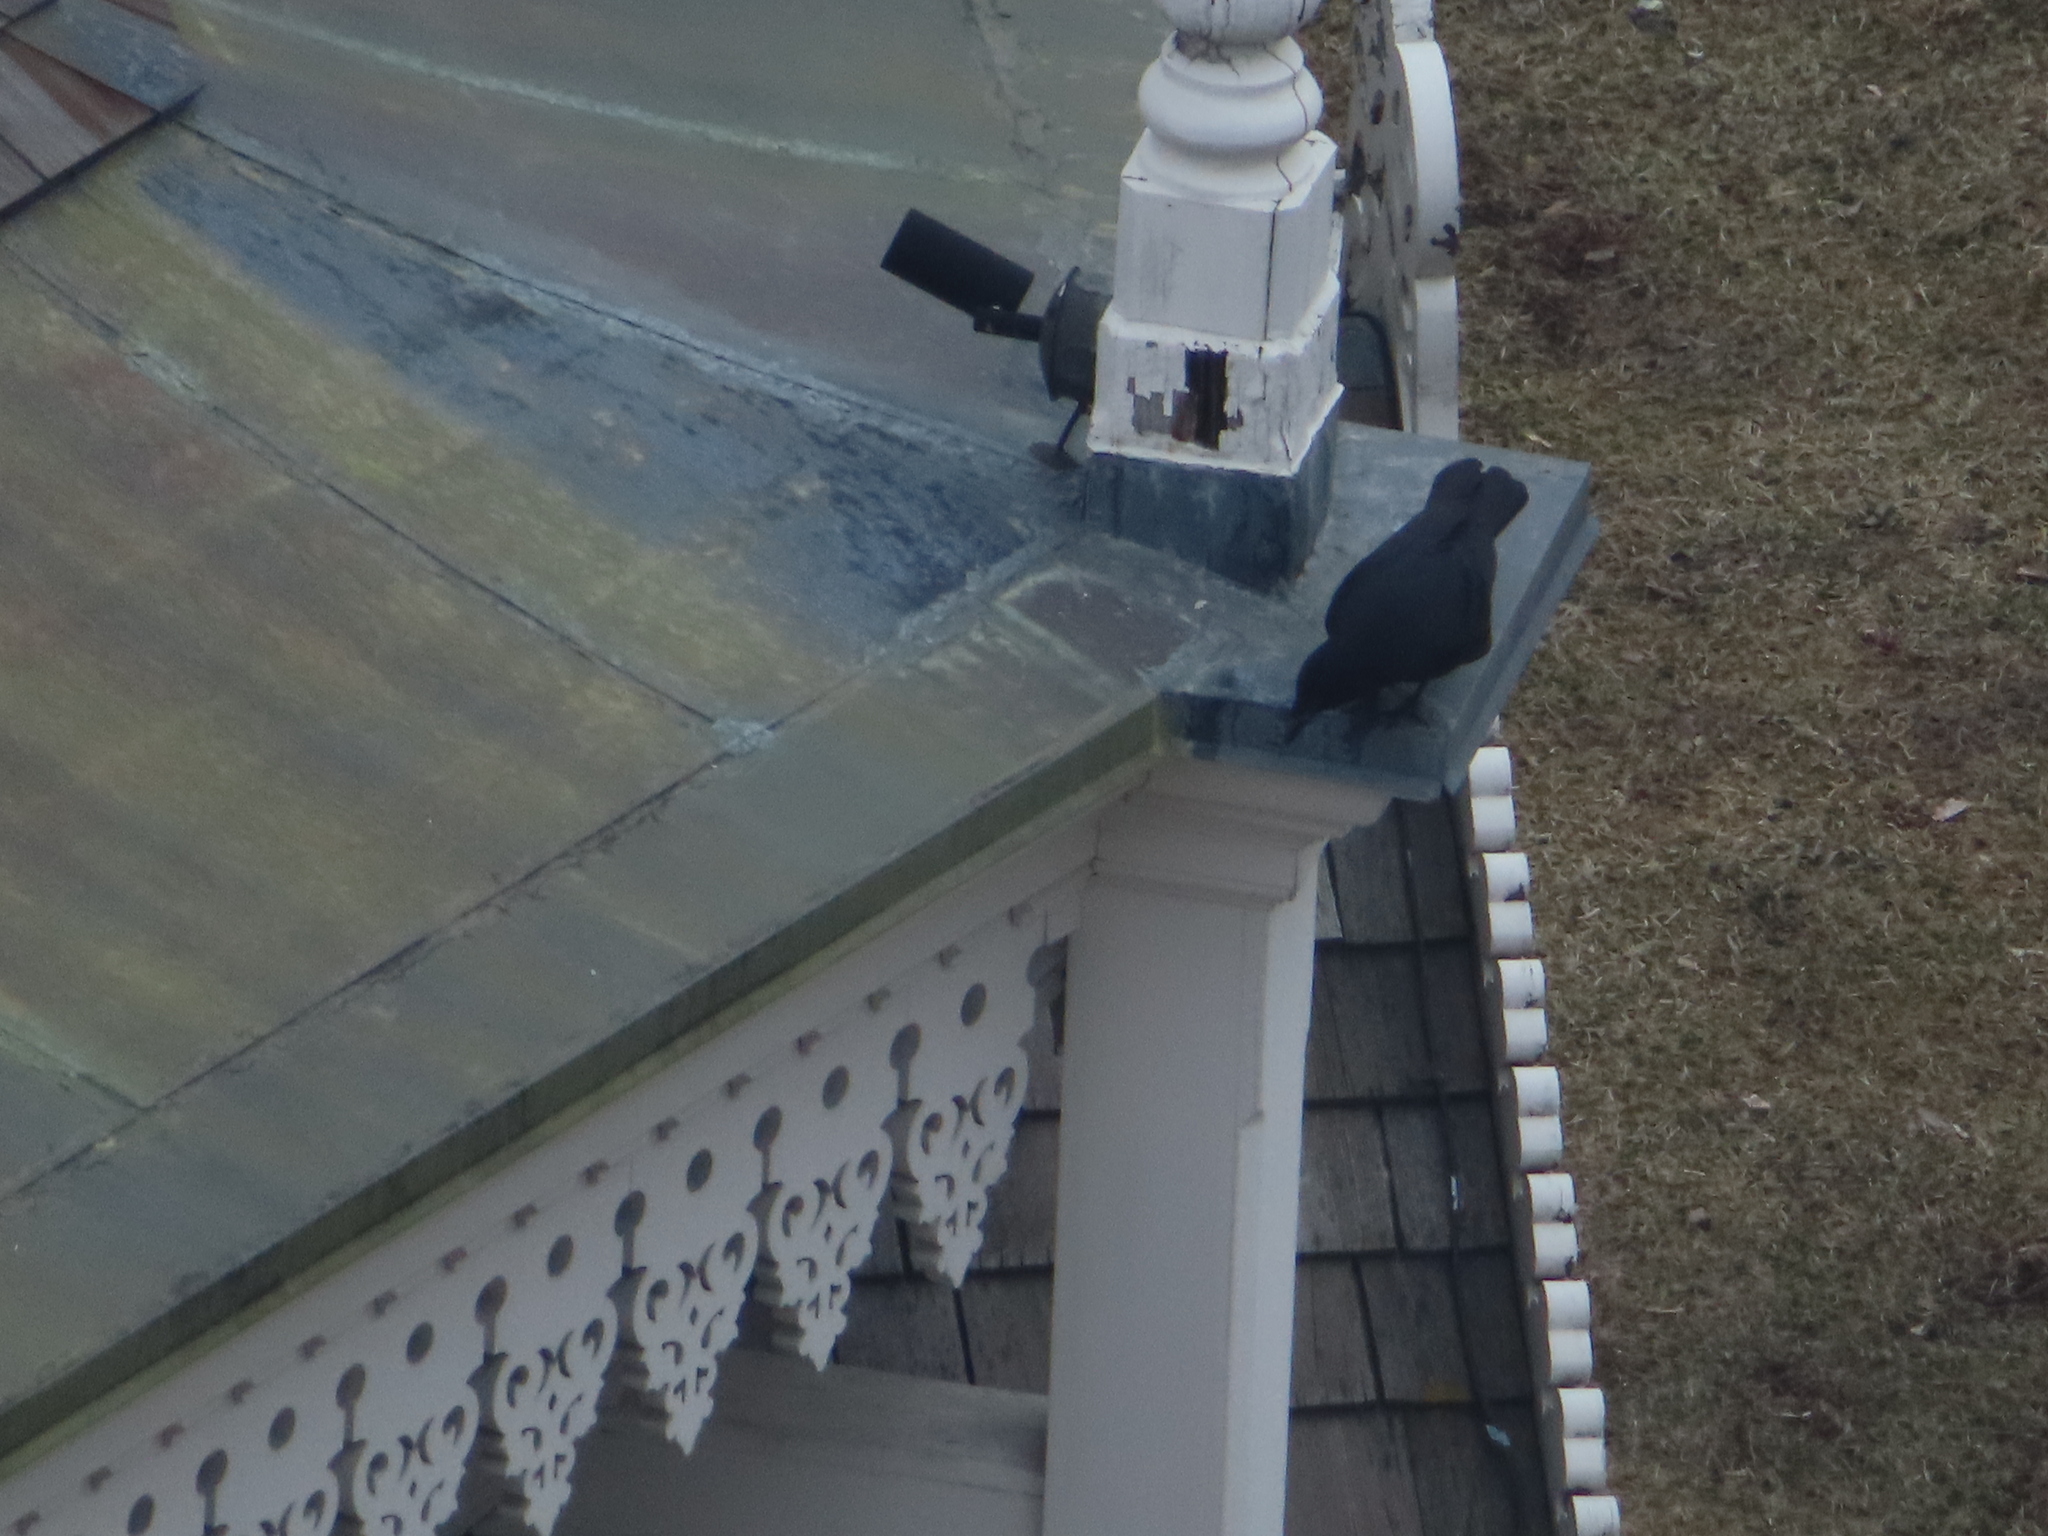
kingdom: Animalia
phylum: Chordata
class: Aves
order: Passeriformes
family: Corvidae
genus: Corvus
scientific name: Corvus brachyrhynchos
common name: American crow
